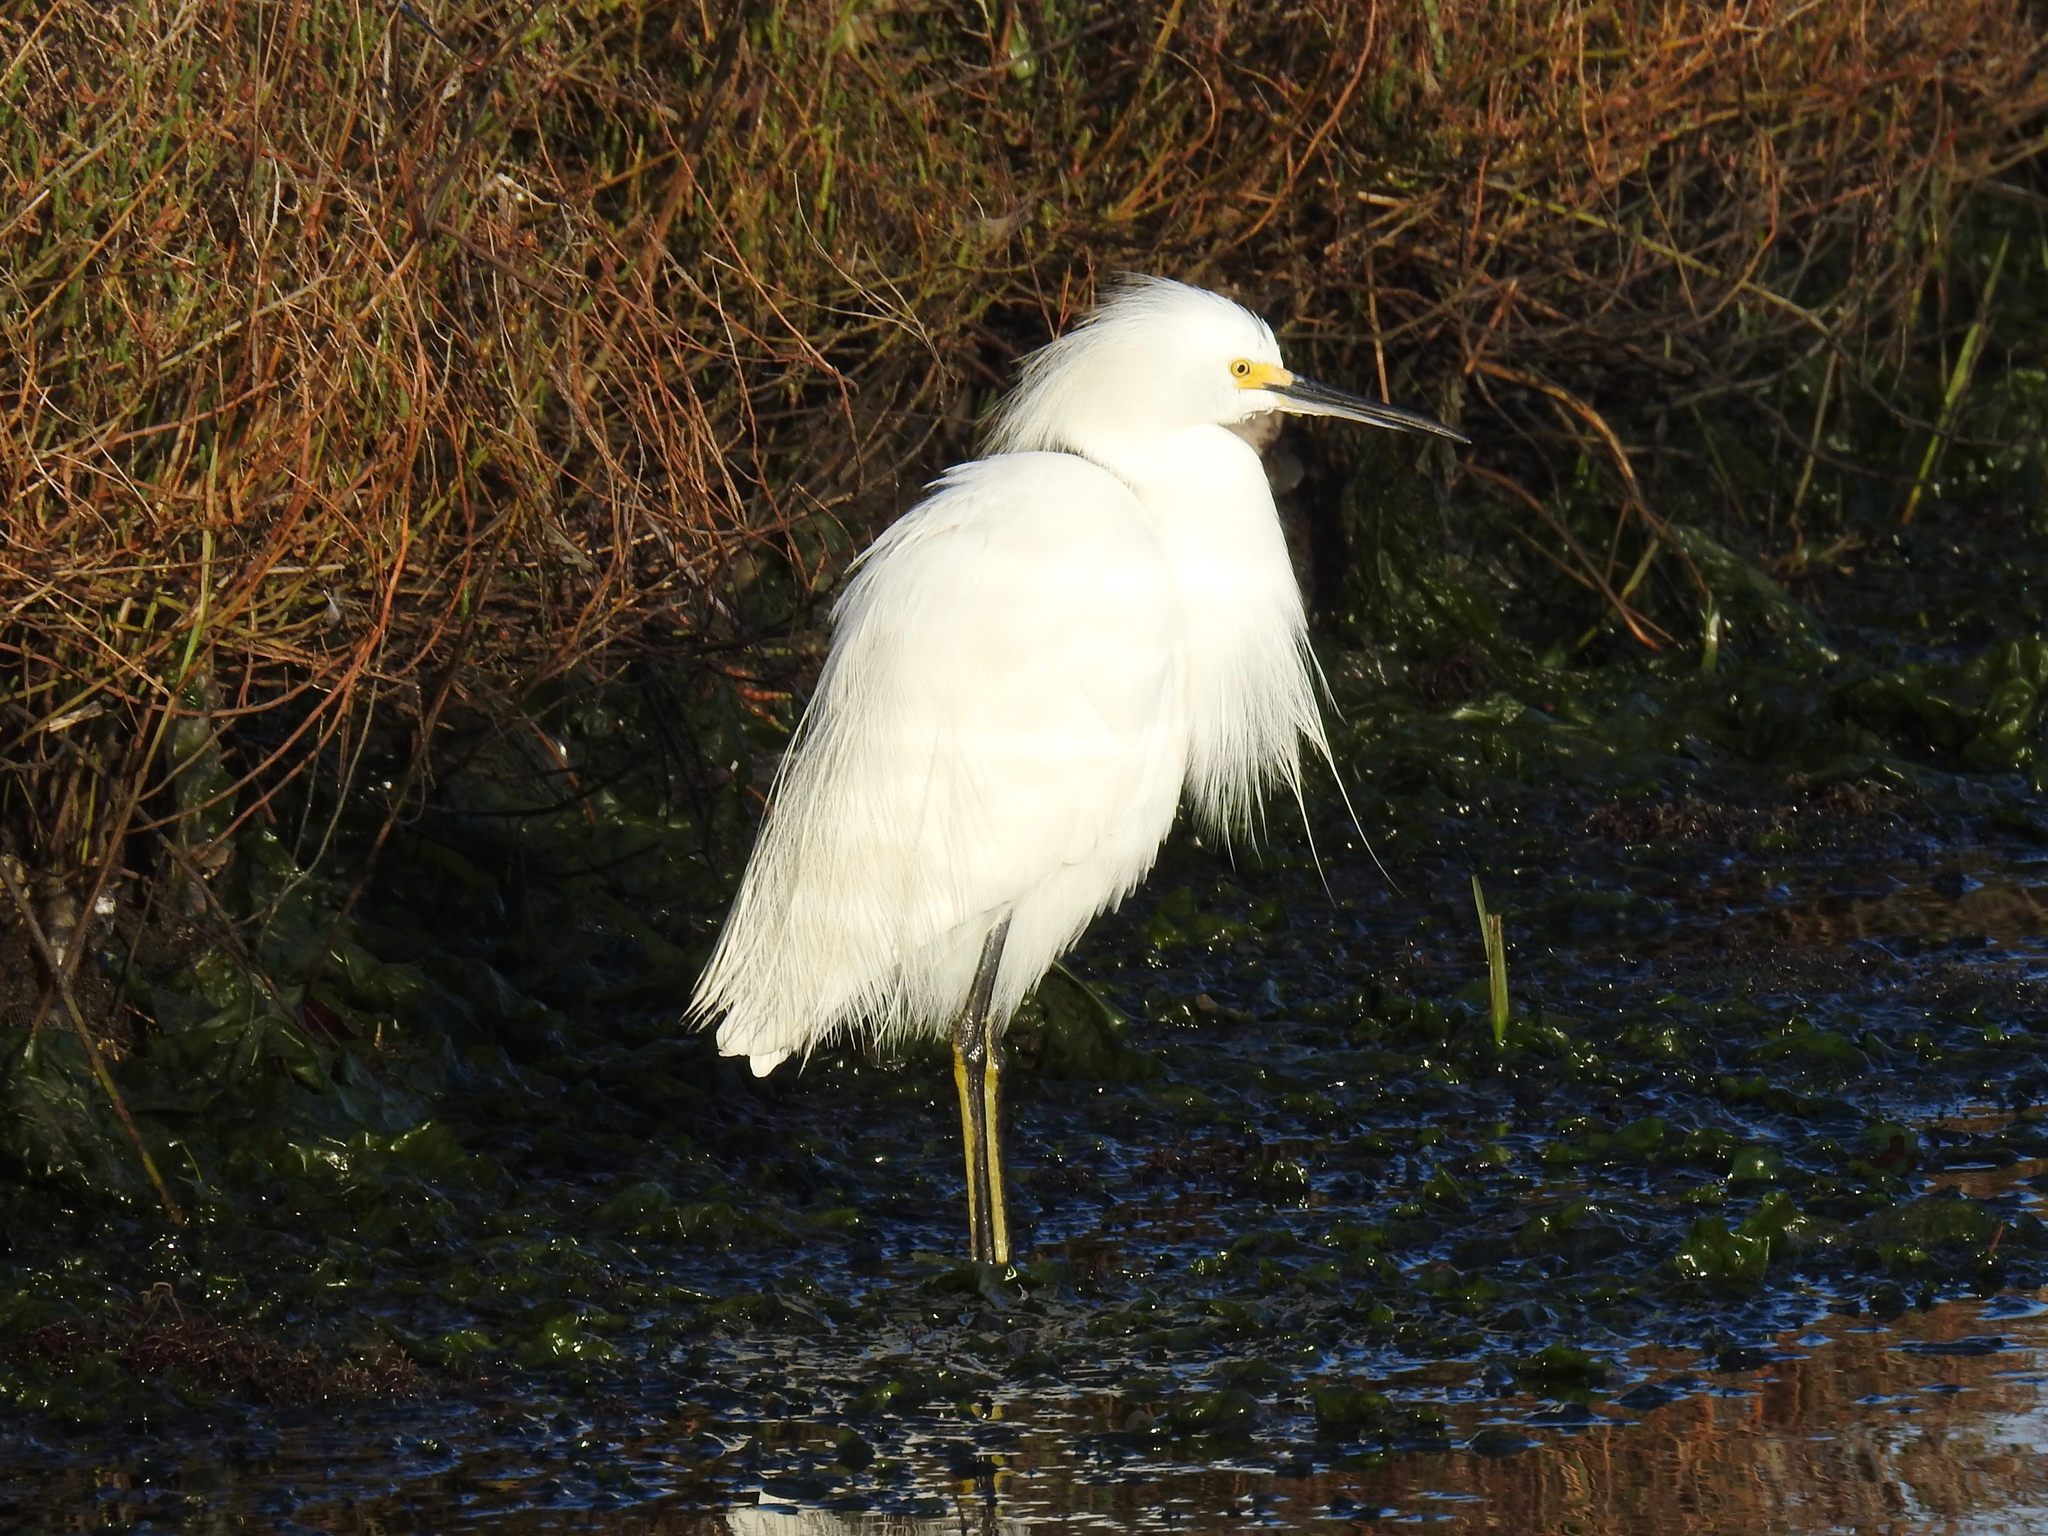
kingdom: Animalia
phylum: Chordata
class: Aves
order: Pelecaniformes
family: Ardeidae
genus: Egretta
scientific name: Egretta thula
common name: Snowy egret
